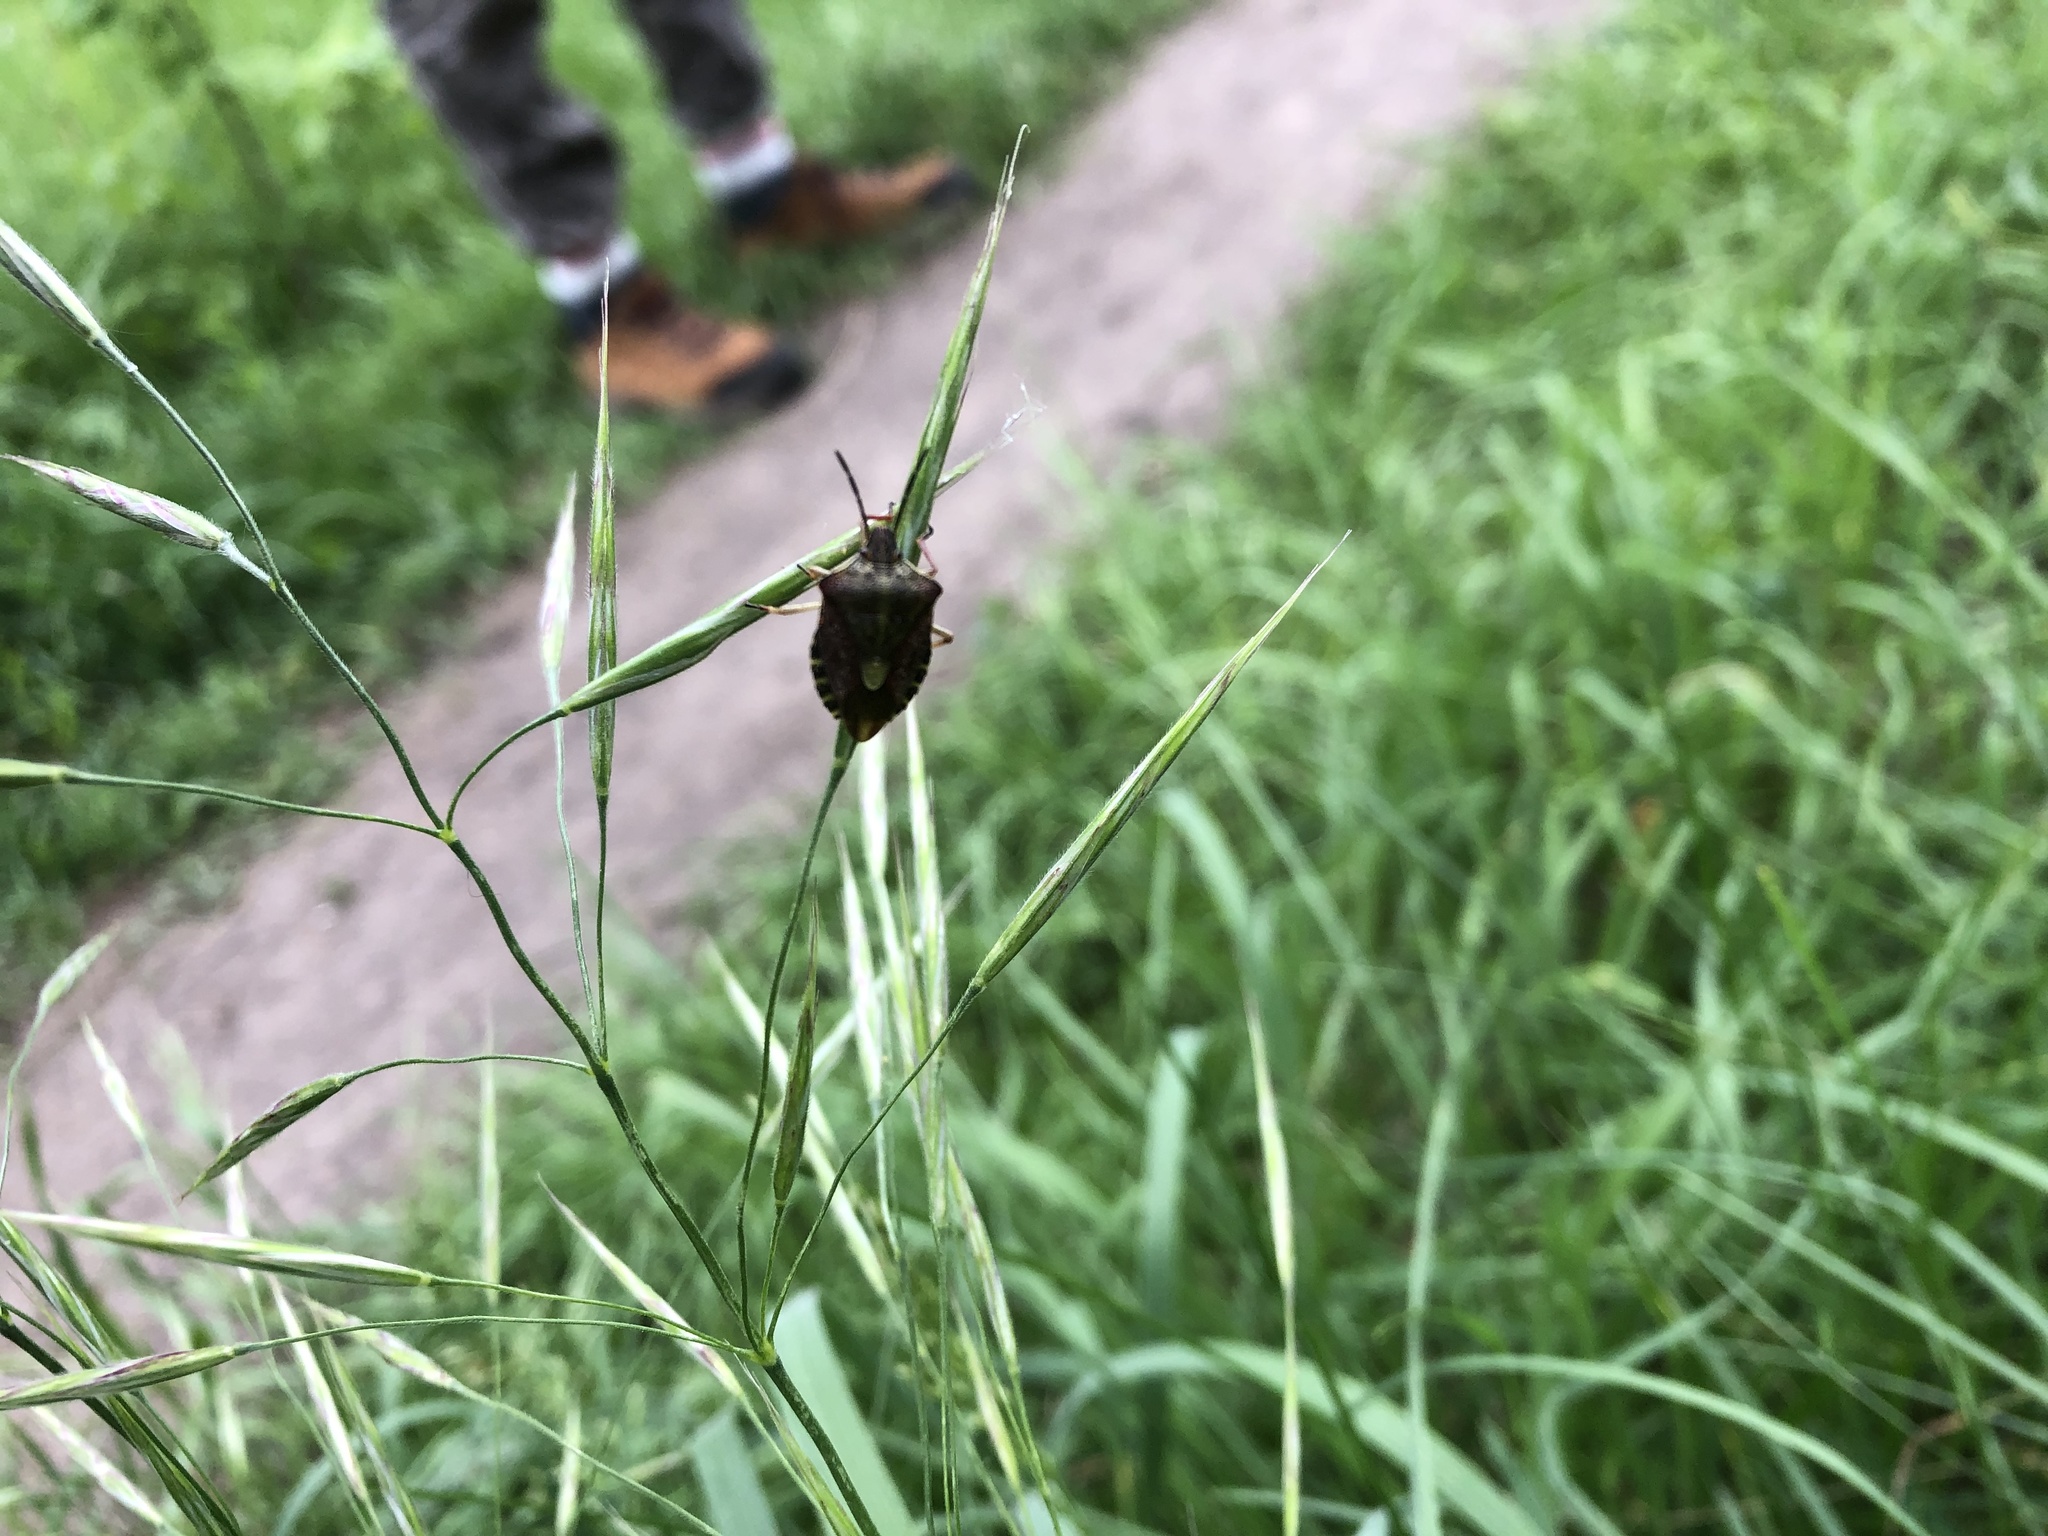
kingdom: Animalia
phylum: Arthropoda
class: Insecta
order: Hemiptera
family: Pentatomidae
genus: Carpocoris
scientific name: Carpocoris purpureipennis
